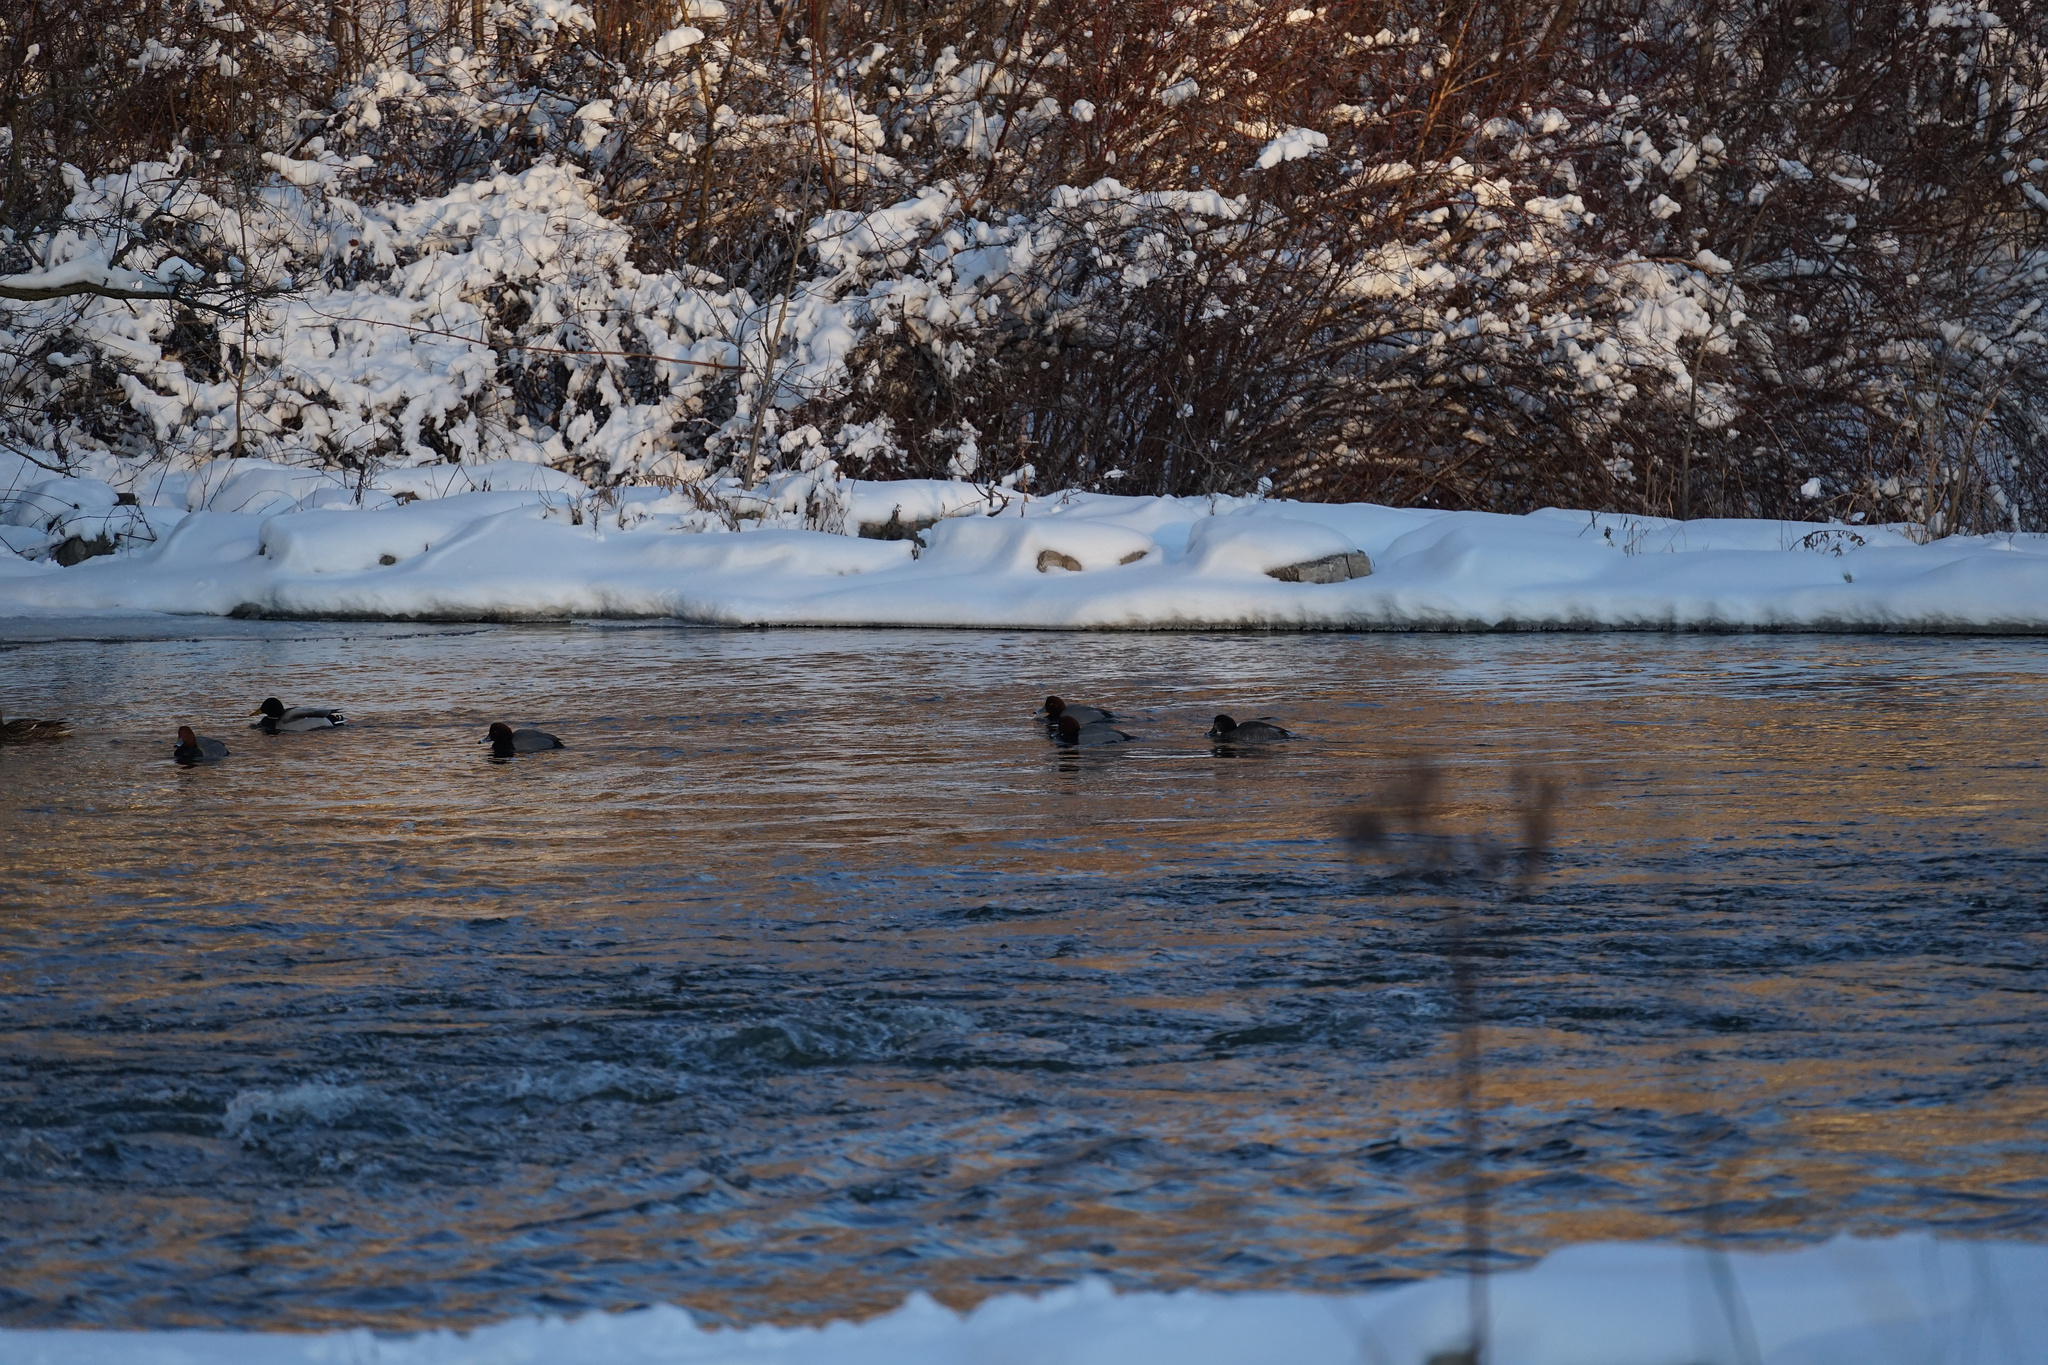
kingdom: Animalia
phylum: Chordata
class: Aves
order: Anseriformes
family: Anatidae
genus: Aythya
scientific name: Aythya americana
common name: Redhead
